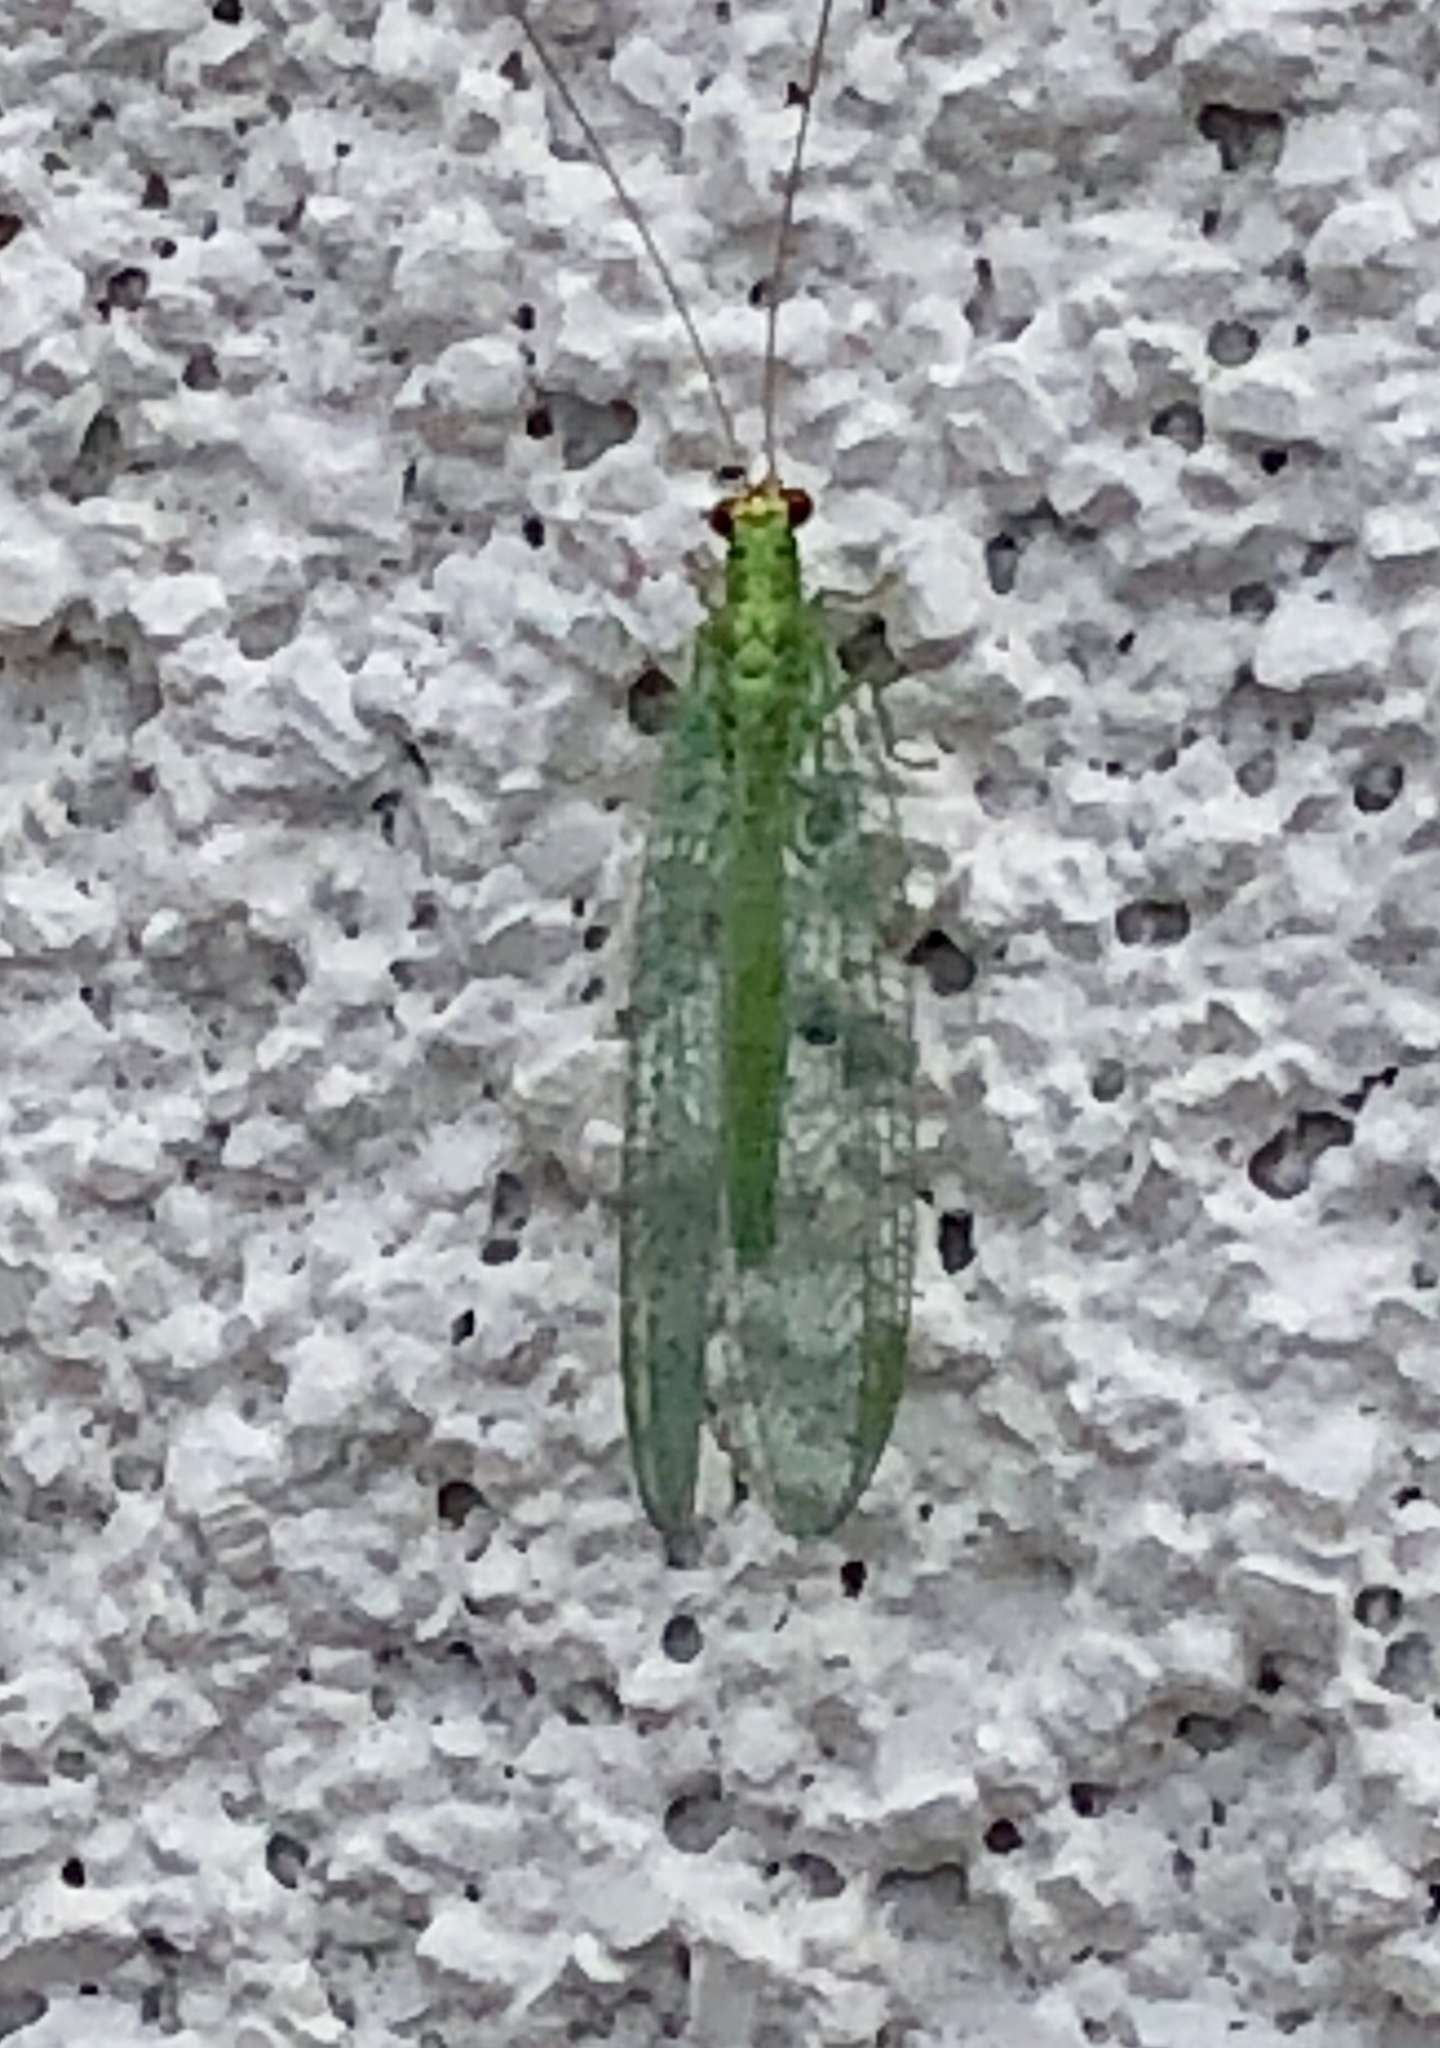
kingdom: Animalia
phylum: Arthropoda
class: Insecta
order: Neuroptera
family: Chrysopidae
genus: Chrysopa
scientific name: Chrysopa oculata
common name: Golden-eyed lacewing
